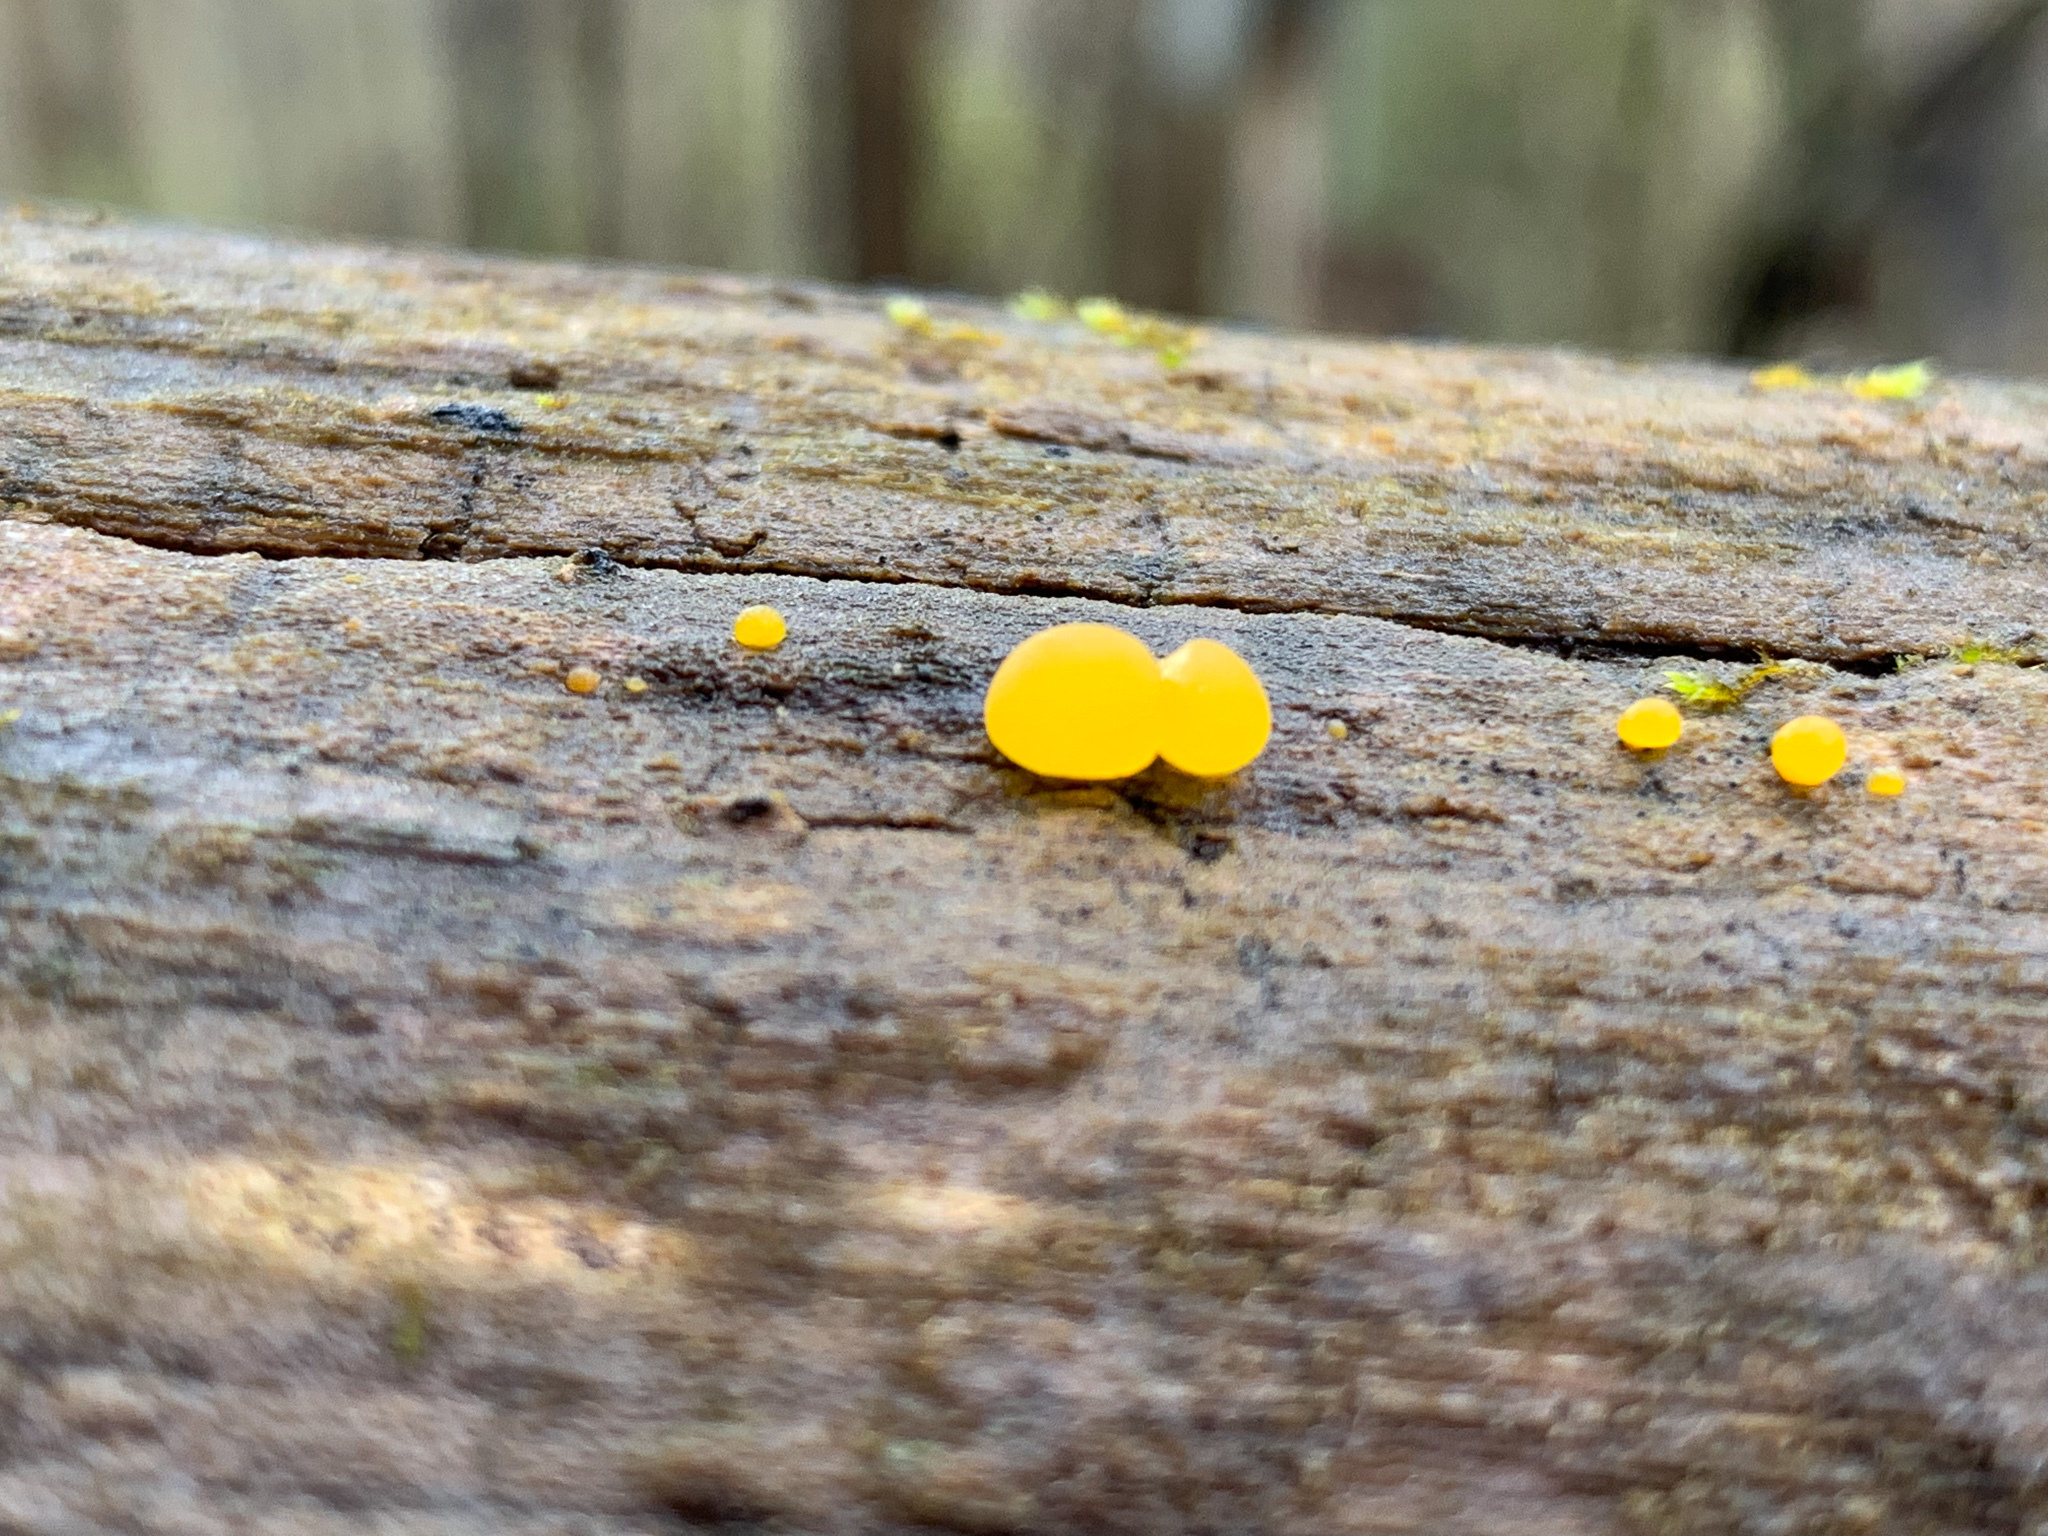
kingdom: Fungi
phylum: Basidiomycota
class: Dacrymycetes
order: Dacrymycetales
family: Dacrymycetaceae
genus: Dacrymyces
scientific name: Dacrymyces capitatus
